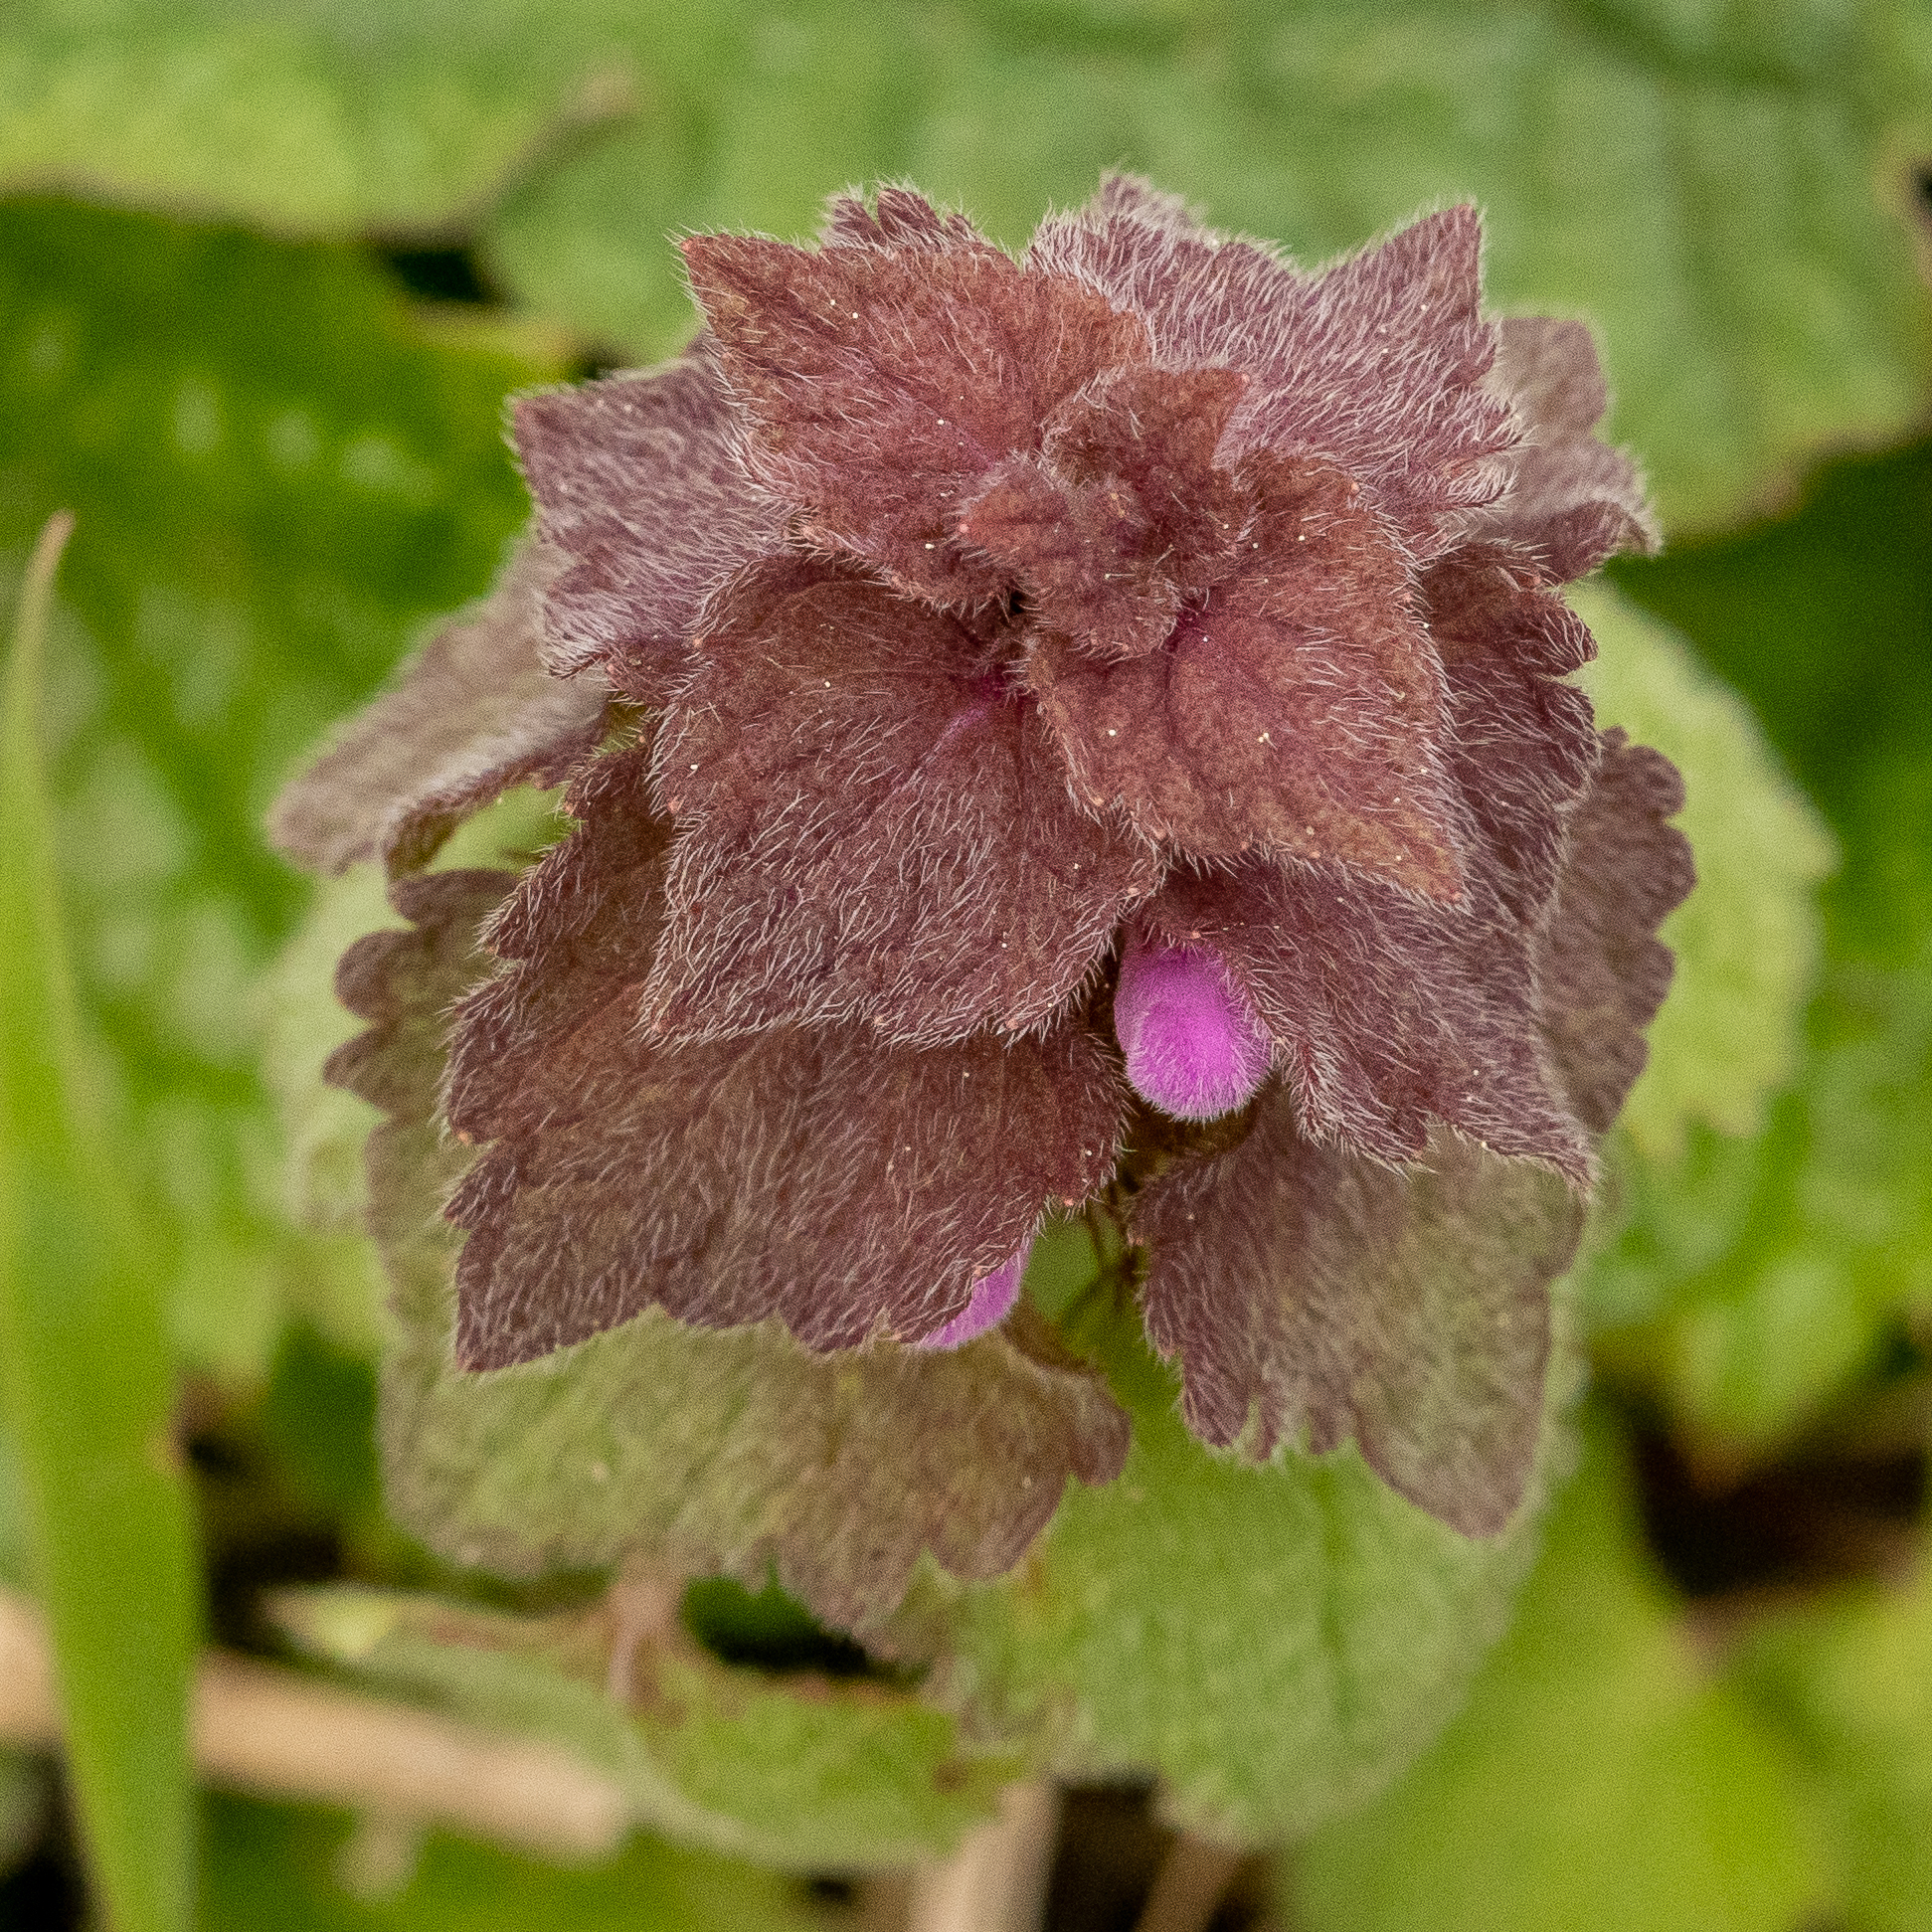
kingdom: Plantae
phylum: Tracheophyta
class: Magnoliopsida
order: Lamiales
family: Lamiaceae
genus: Lamium
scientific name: Lamium purpureum
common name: Red dead-nettle
